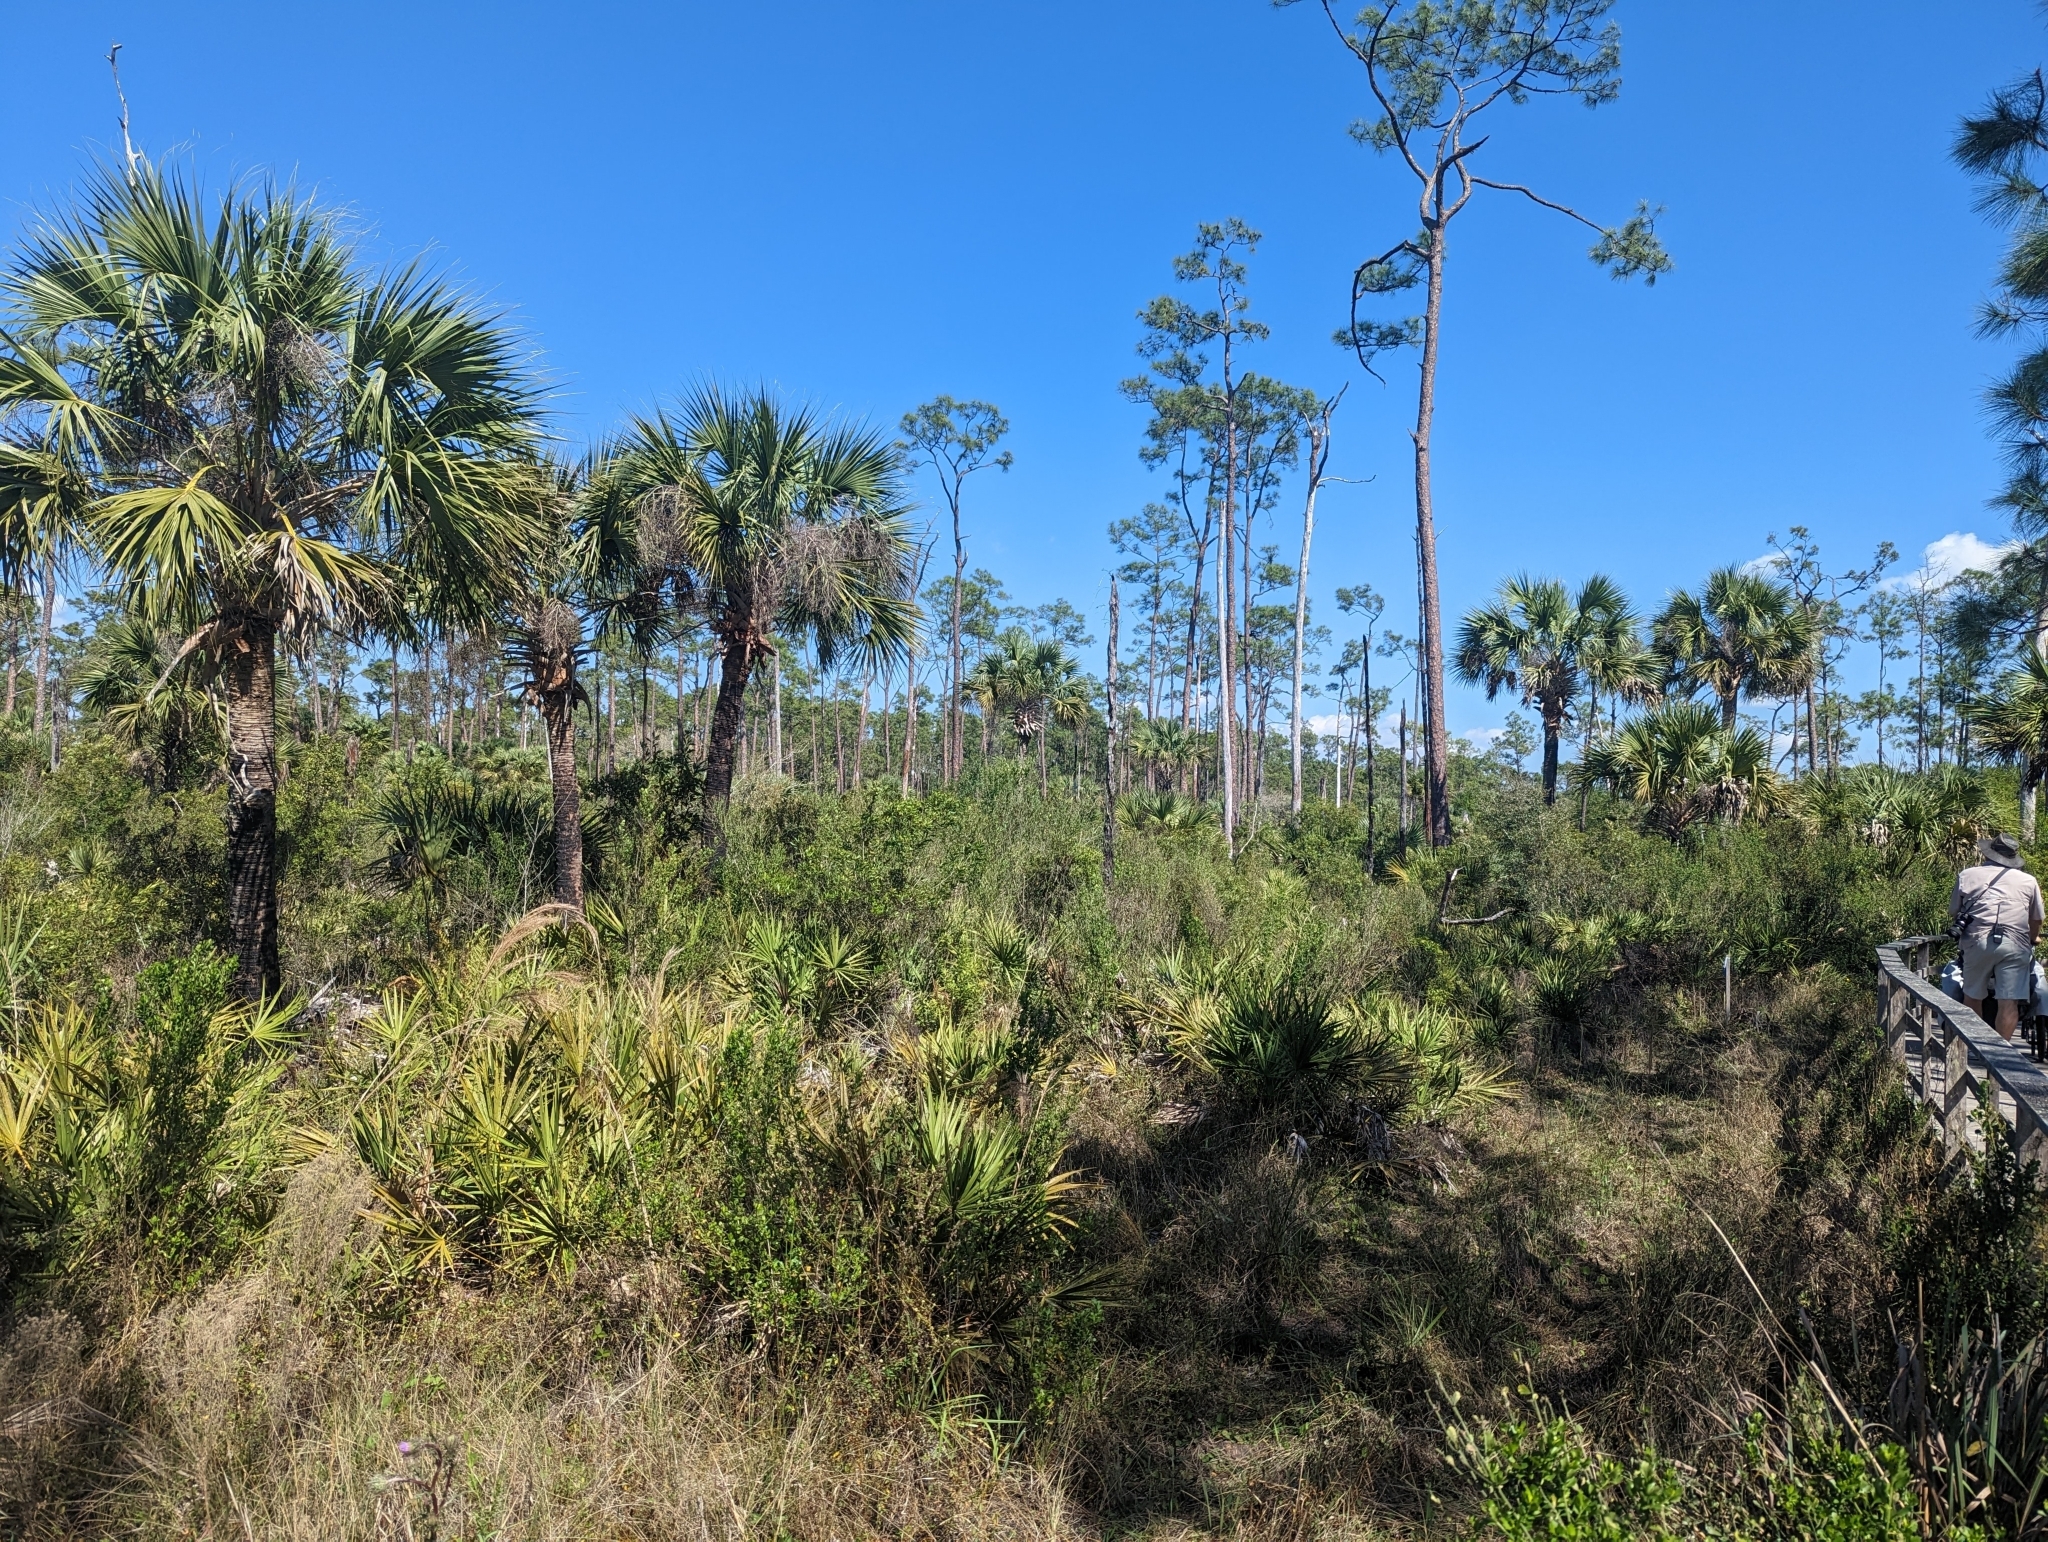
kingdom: Plantae
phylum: Tracheophyta
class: Liliopsida
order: Arecales
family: Arecaceae
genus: Sabal
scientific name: Sabal palmetto
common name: Blue palmetto
